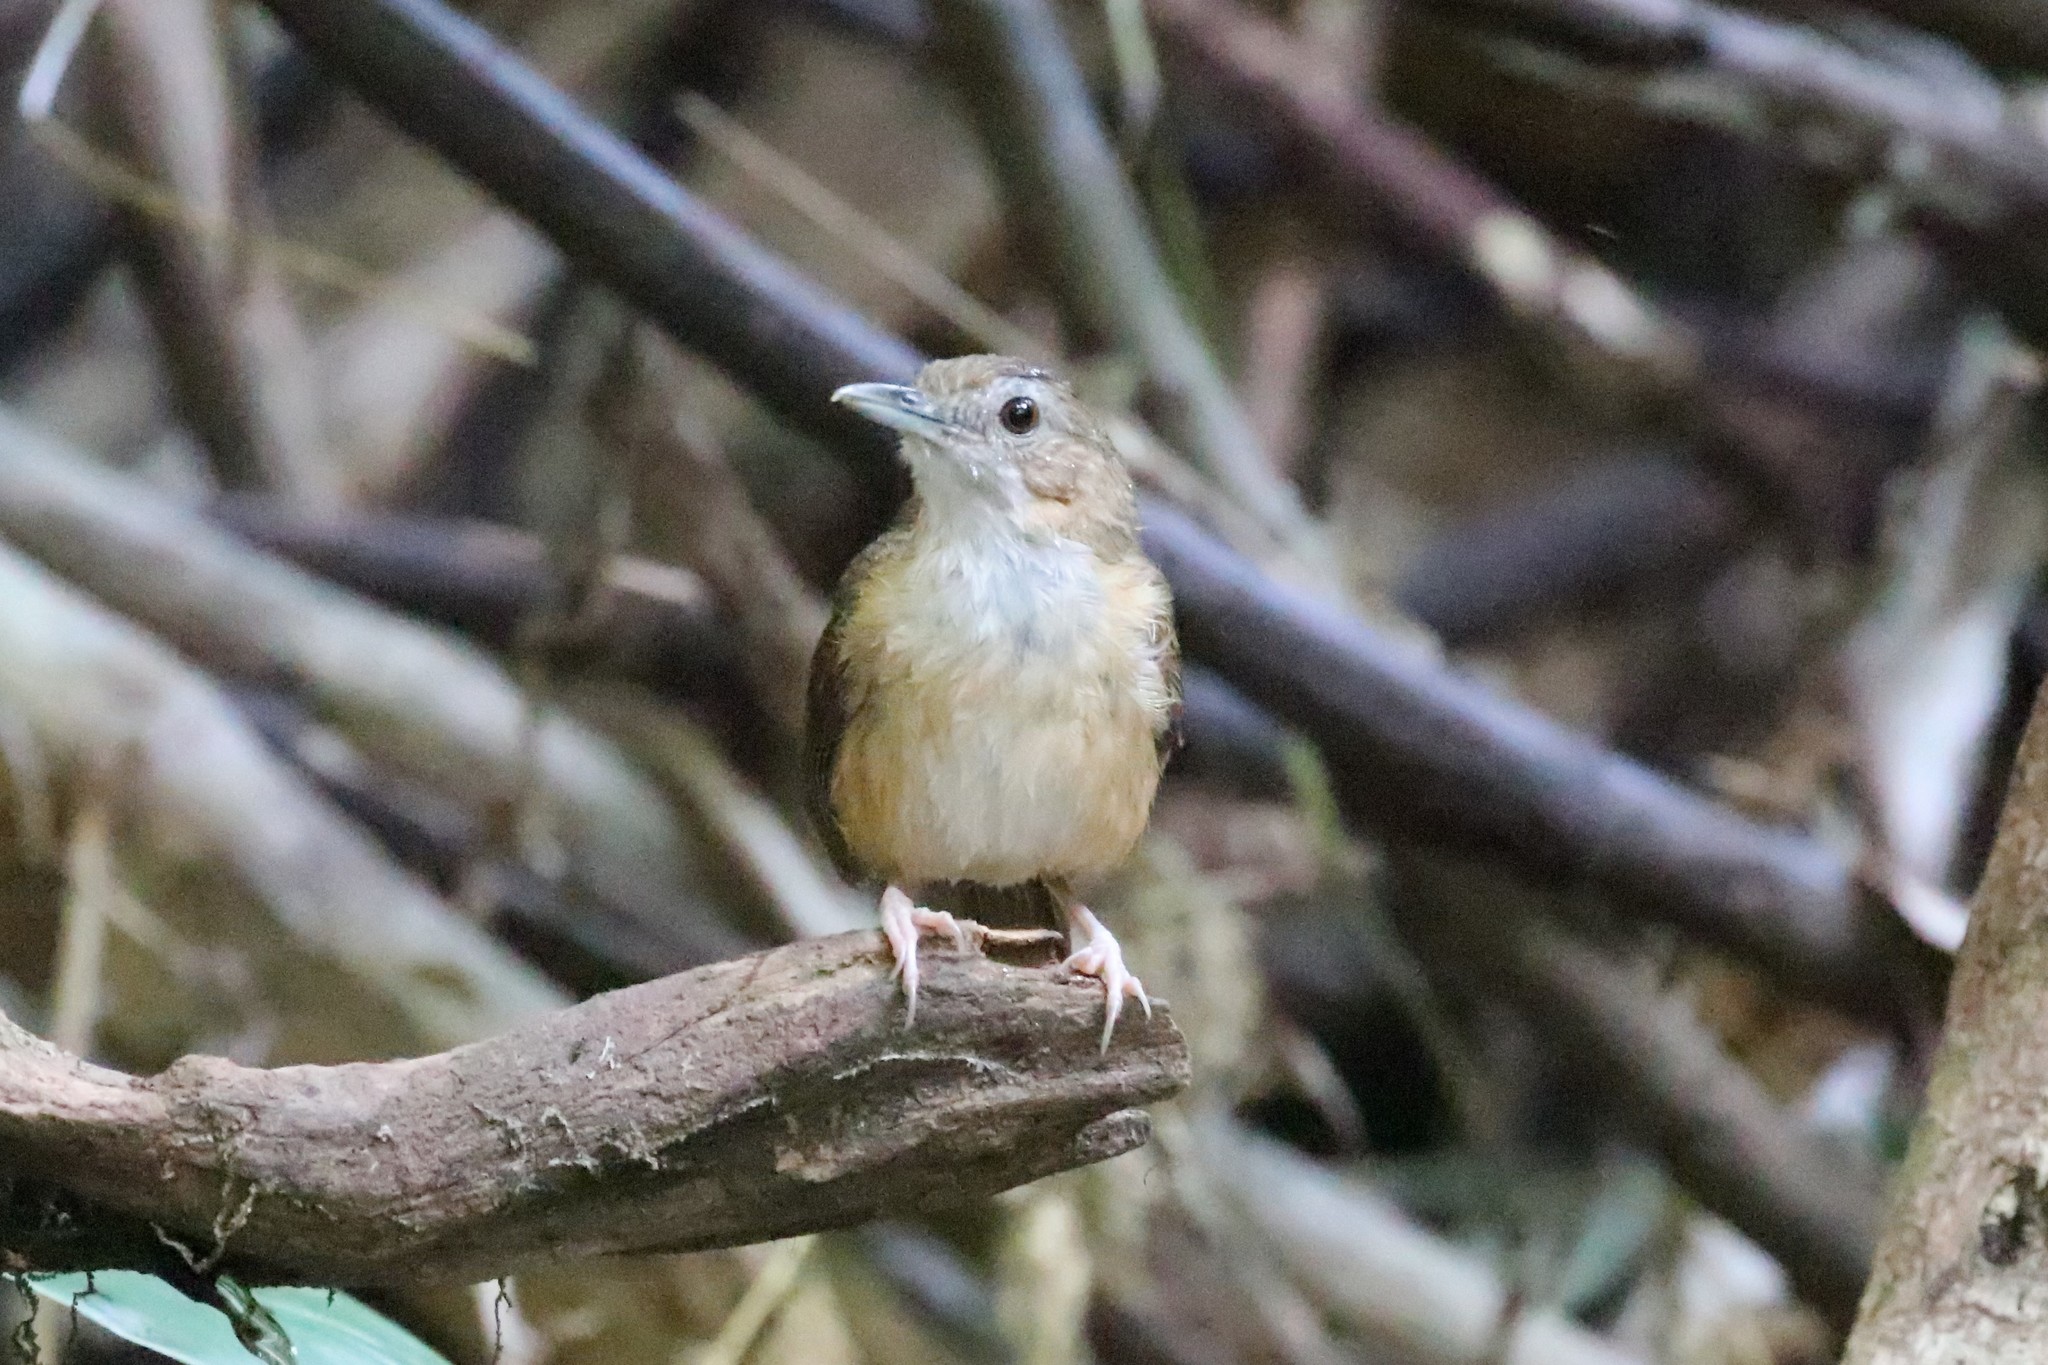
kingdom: Animalia
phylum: Chordata
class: Aves
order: Passeriformes
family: Pellorneidae
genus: Malacocincla
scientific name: Malacocincla abbotti
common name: Abbott's babbler
